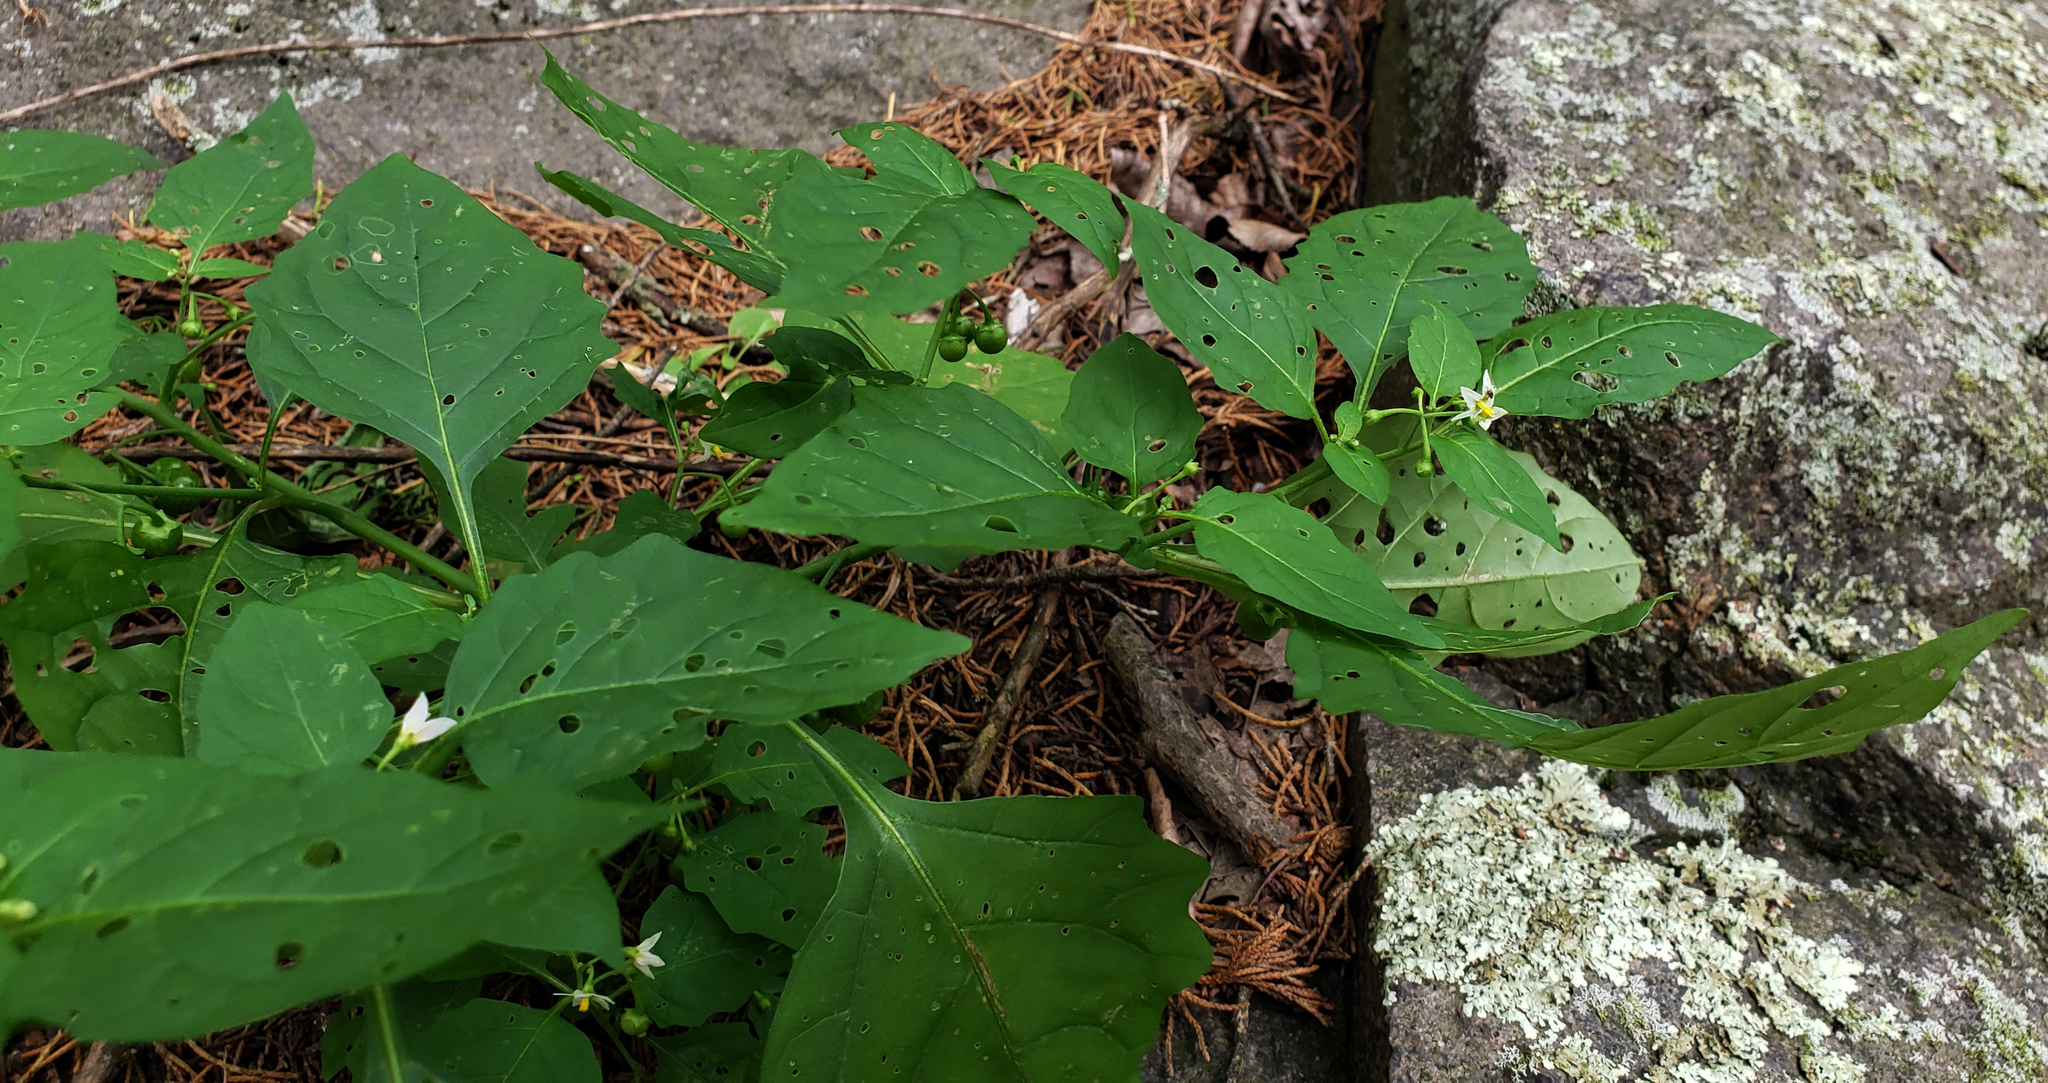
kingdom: Plantae
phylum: Tracheophyta
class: Magnoliopsida
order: Solanales
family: Solanaceae
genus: Solanum
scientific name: Solanum emulans
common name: Eastern black nightshade
